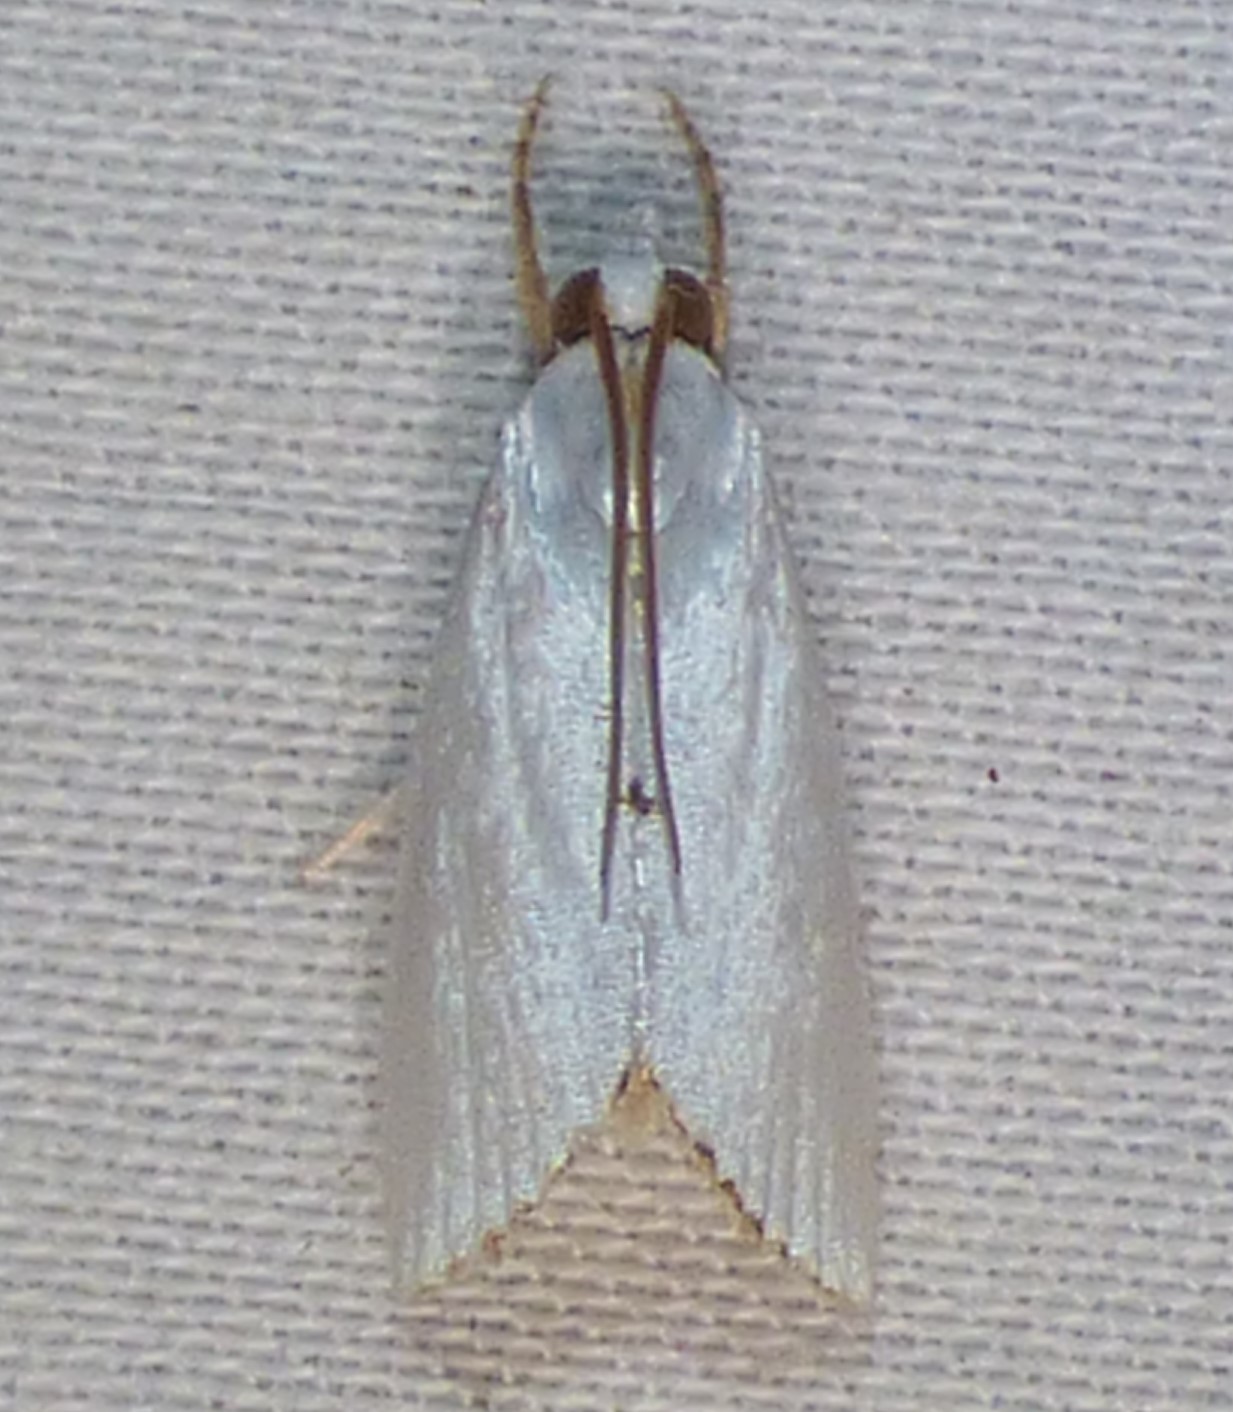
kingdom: Animalia
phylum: Arthropoda
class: Insecta
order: Lepidoptera
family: Crambidae
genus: Argyria
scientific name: Argyria nivalis
